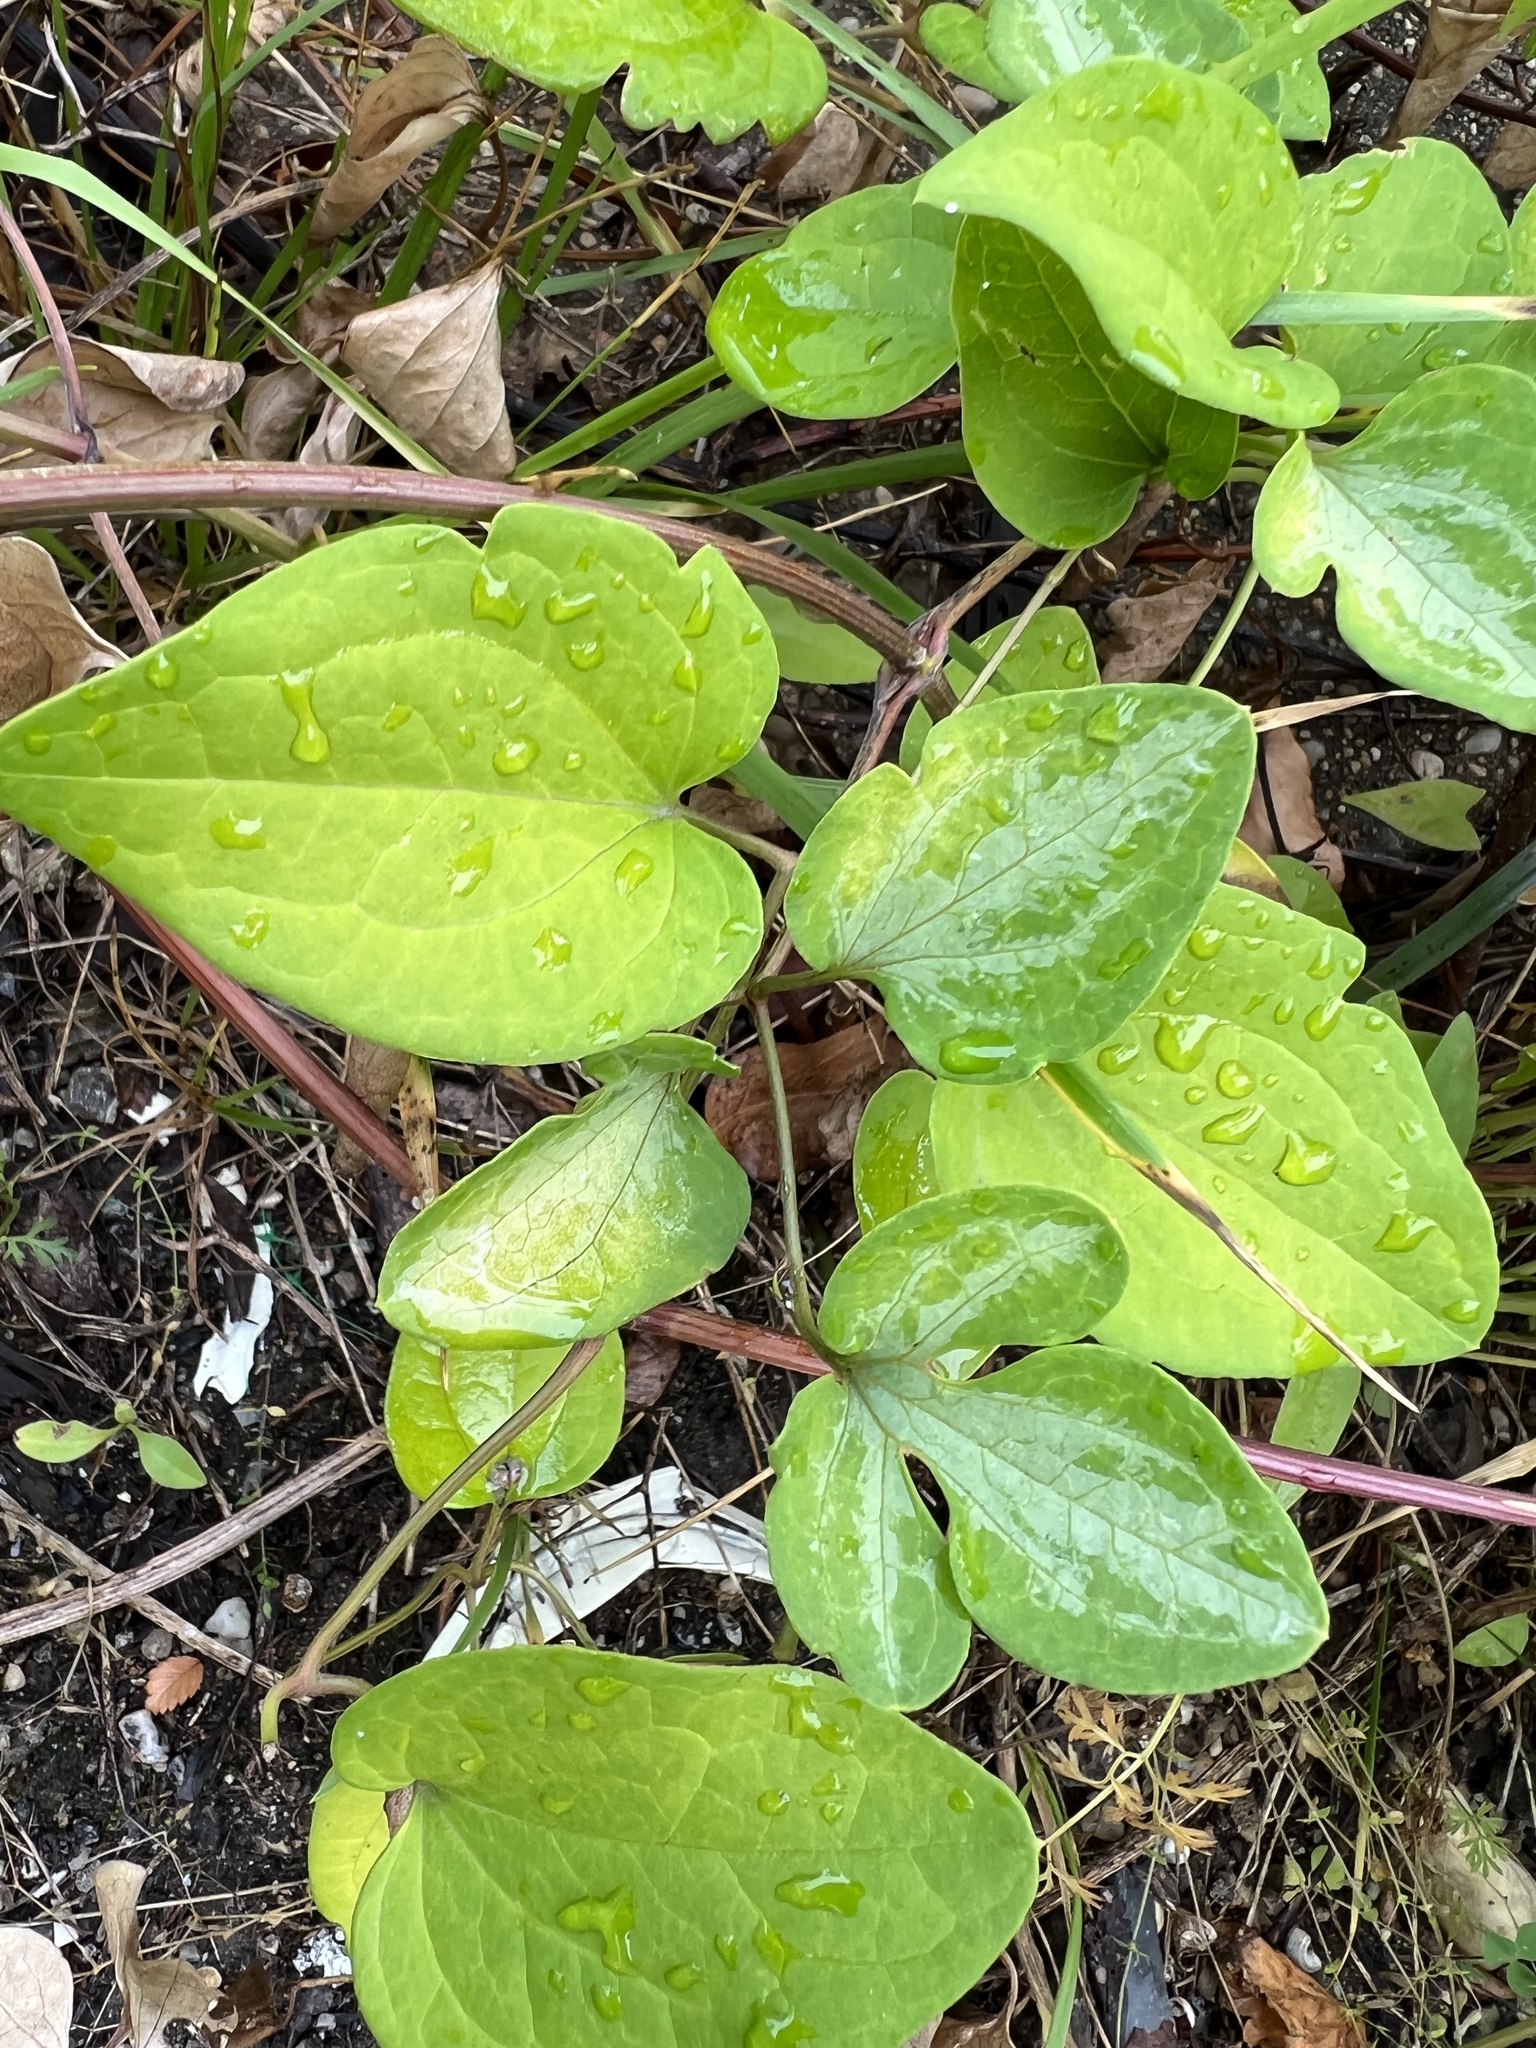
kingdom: Plantae
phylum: Tracheophyta
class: Magnoliopsida
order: Ranunculales
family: Ranunculaceae
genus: Clematis
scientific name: Clematis terniflora
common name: Sweet autumn clematis
